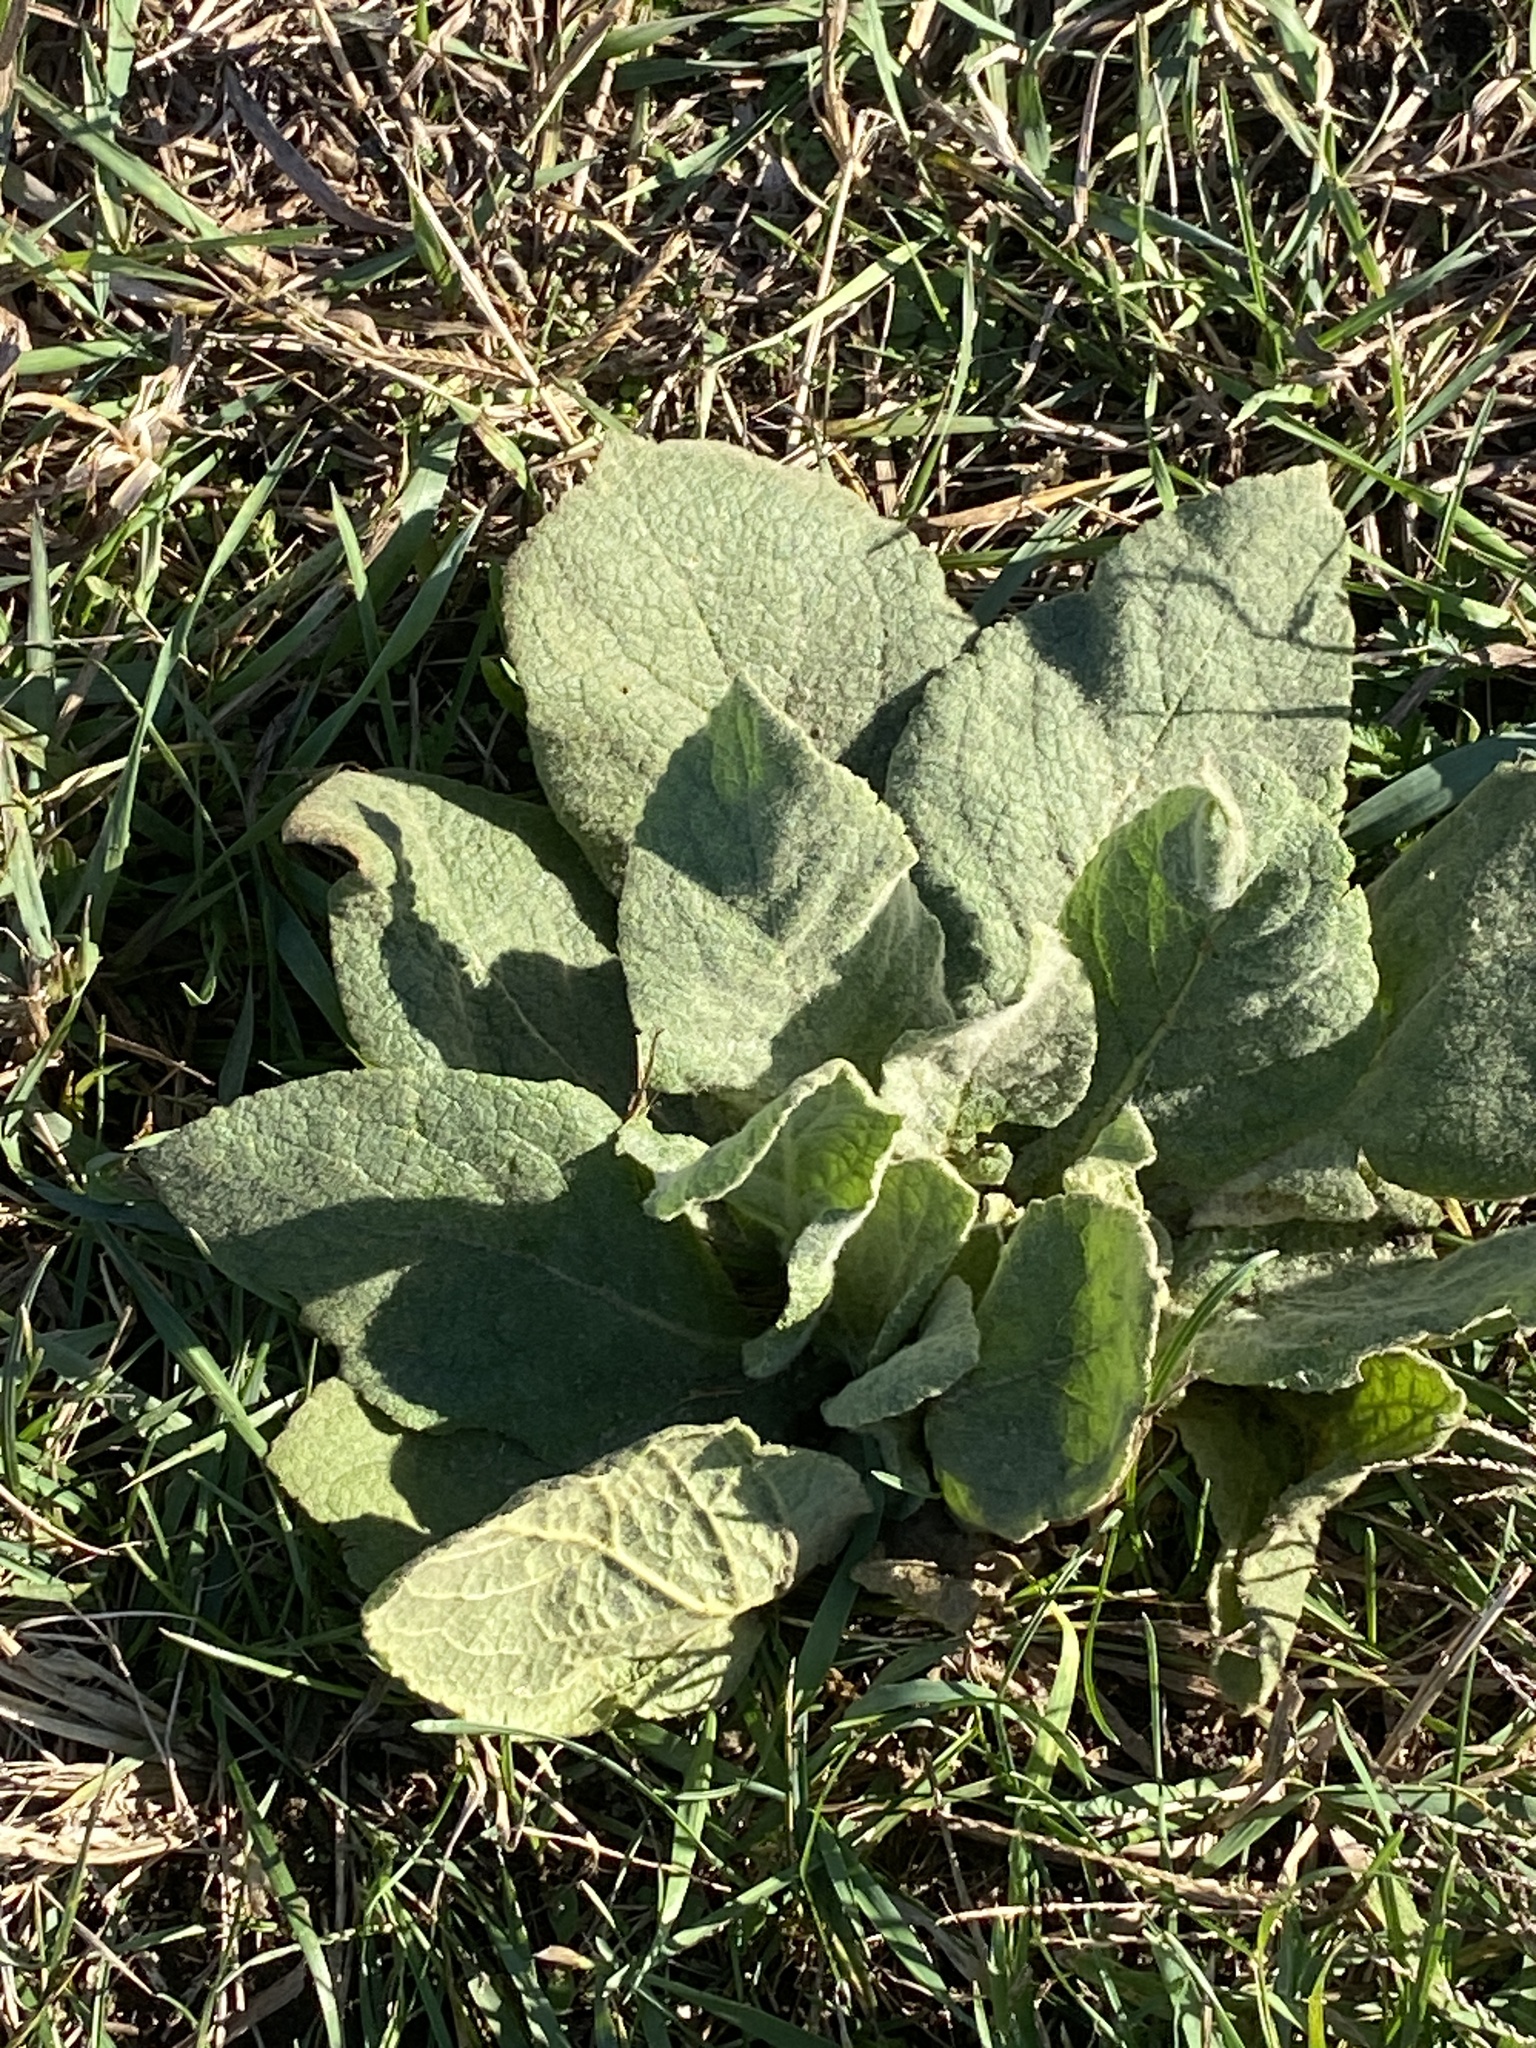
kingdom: Plantae
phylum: Tracheophyta
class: Magnoliopsida
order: Lamiales
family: Scrophulariaceae
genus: Verbascum
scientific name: Verbascum thapsus
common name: Common mullein
